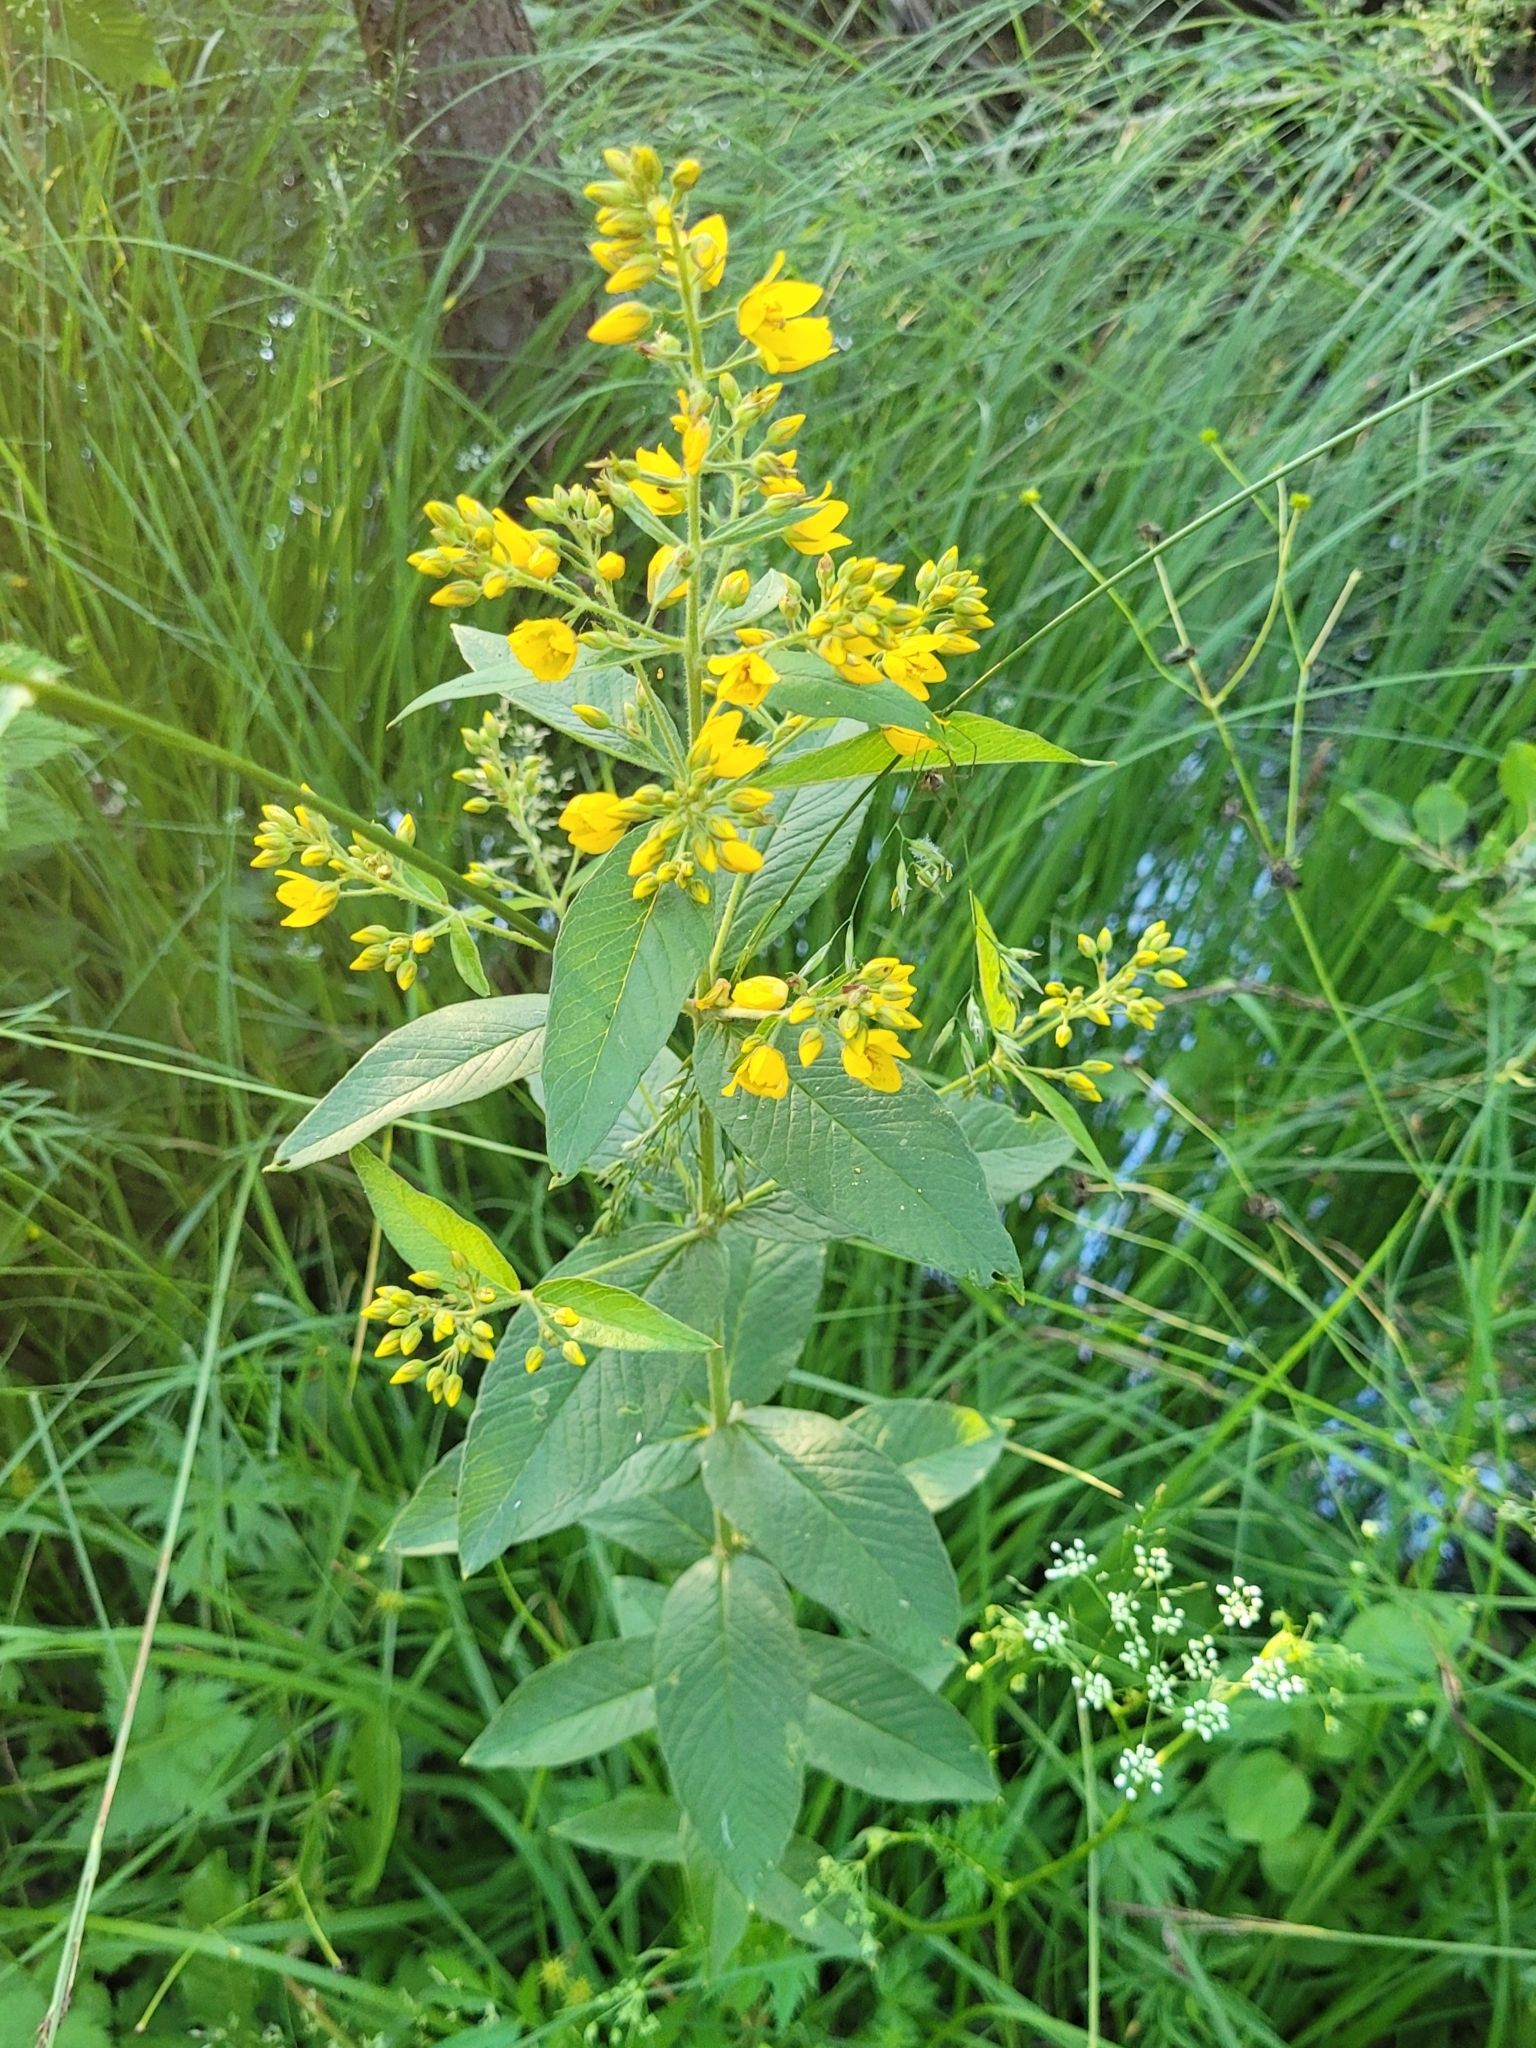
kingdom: Plantae
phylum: Tracheophyta
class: Magnoliopsida
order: Ericales
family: Primulaceae
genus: Lysimachia
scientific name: Lysimachia vulgaris
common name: Yellow loosestrife
